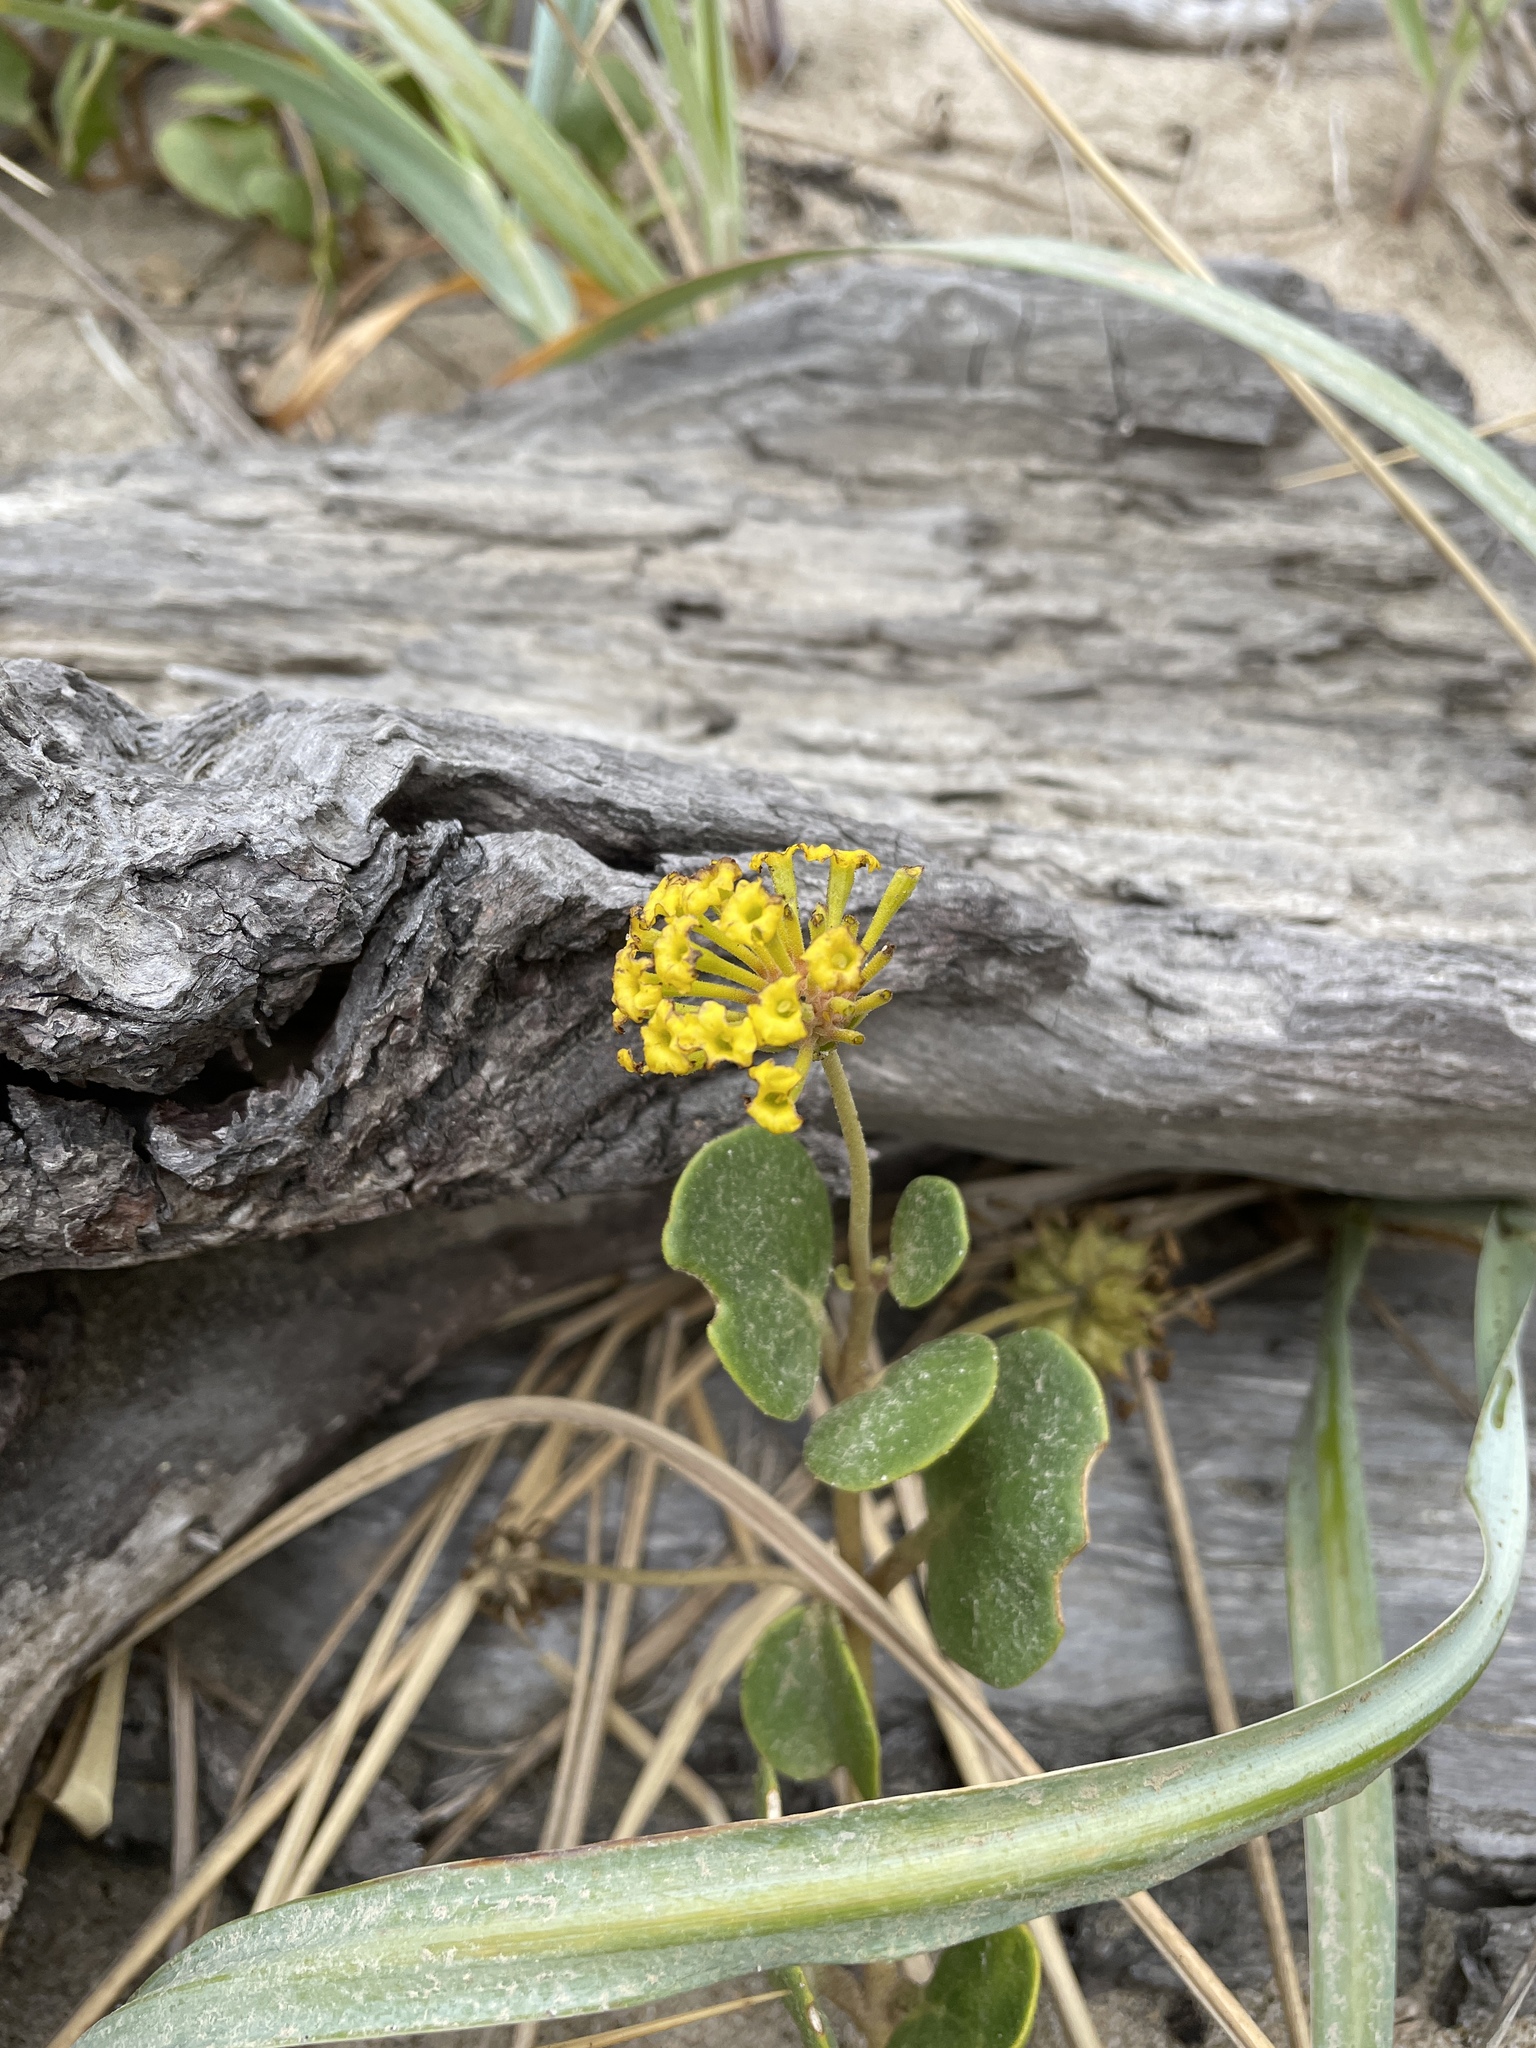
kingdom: Plantae
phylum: Tracheophyta
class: Magnoliopsida
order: Caryophyllales
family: Nyctaginaceae
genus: Abronia
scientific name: Abronia latifolia
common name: Yellow sand-verbena
